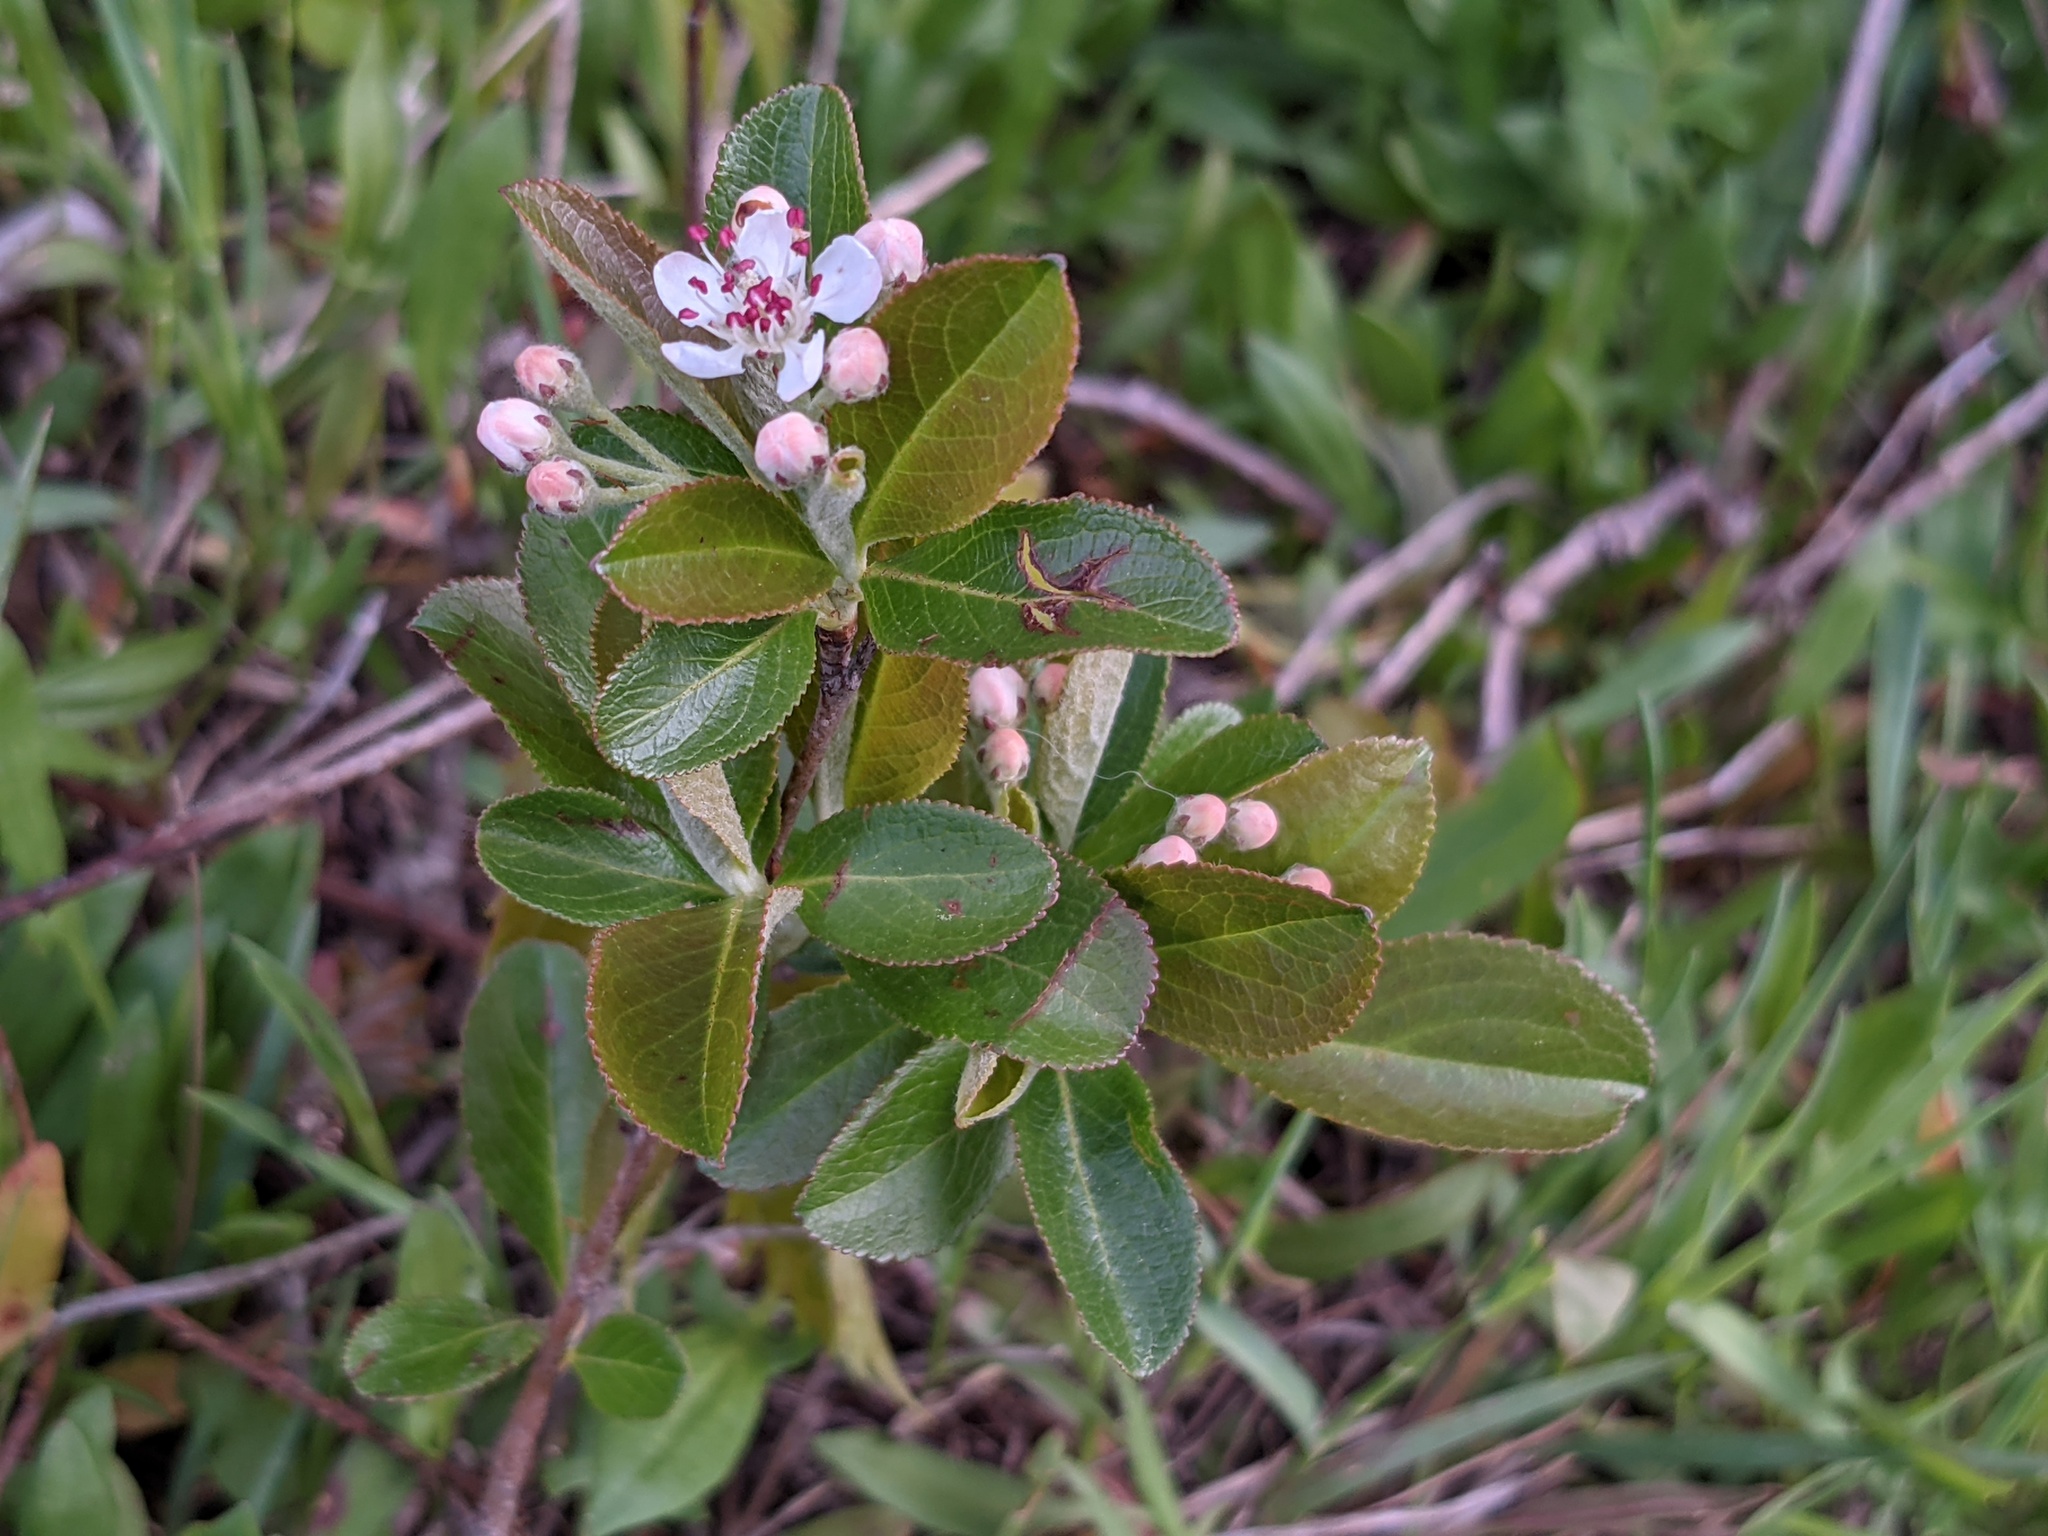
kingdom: Plantae
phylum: Tracheophyta
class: Magnoliopsida
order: Rosales
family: Rosaceae
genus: Aronia
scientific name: Aronia arbutifolia
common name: Red chokeberry
